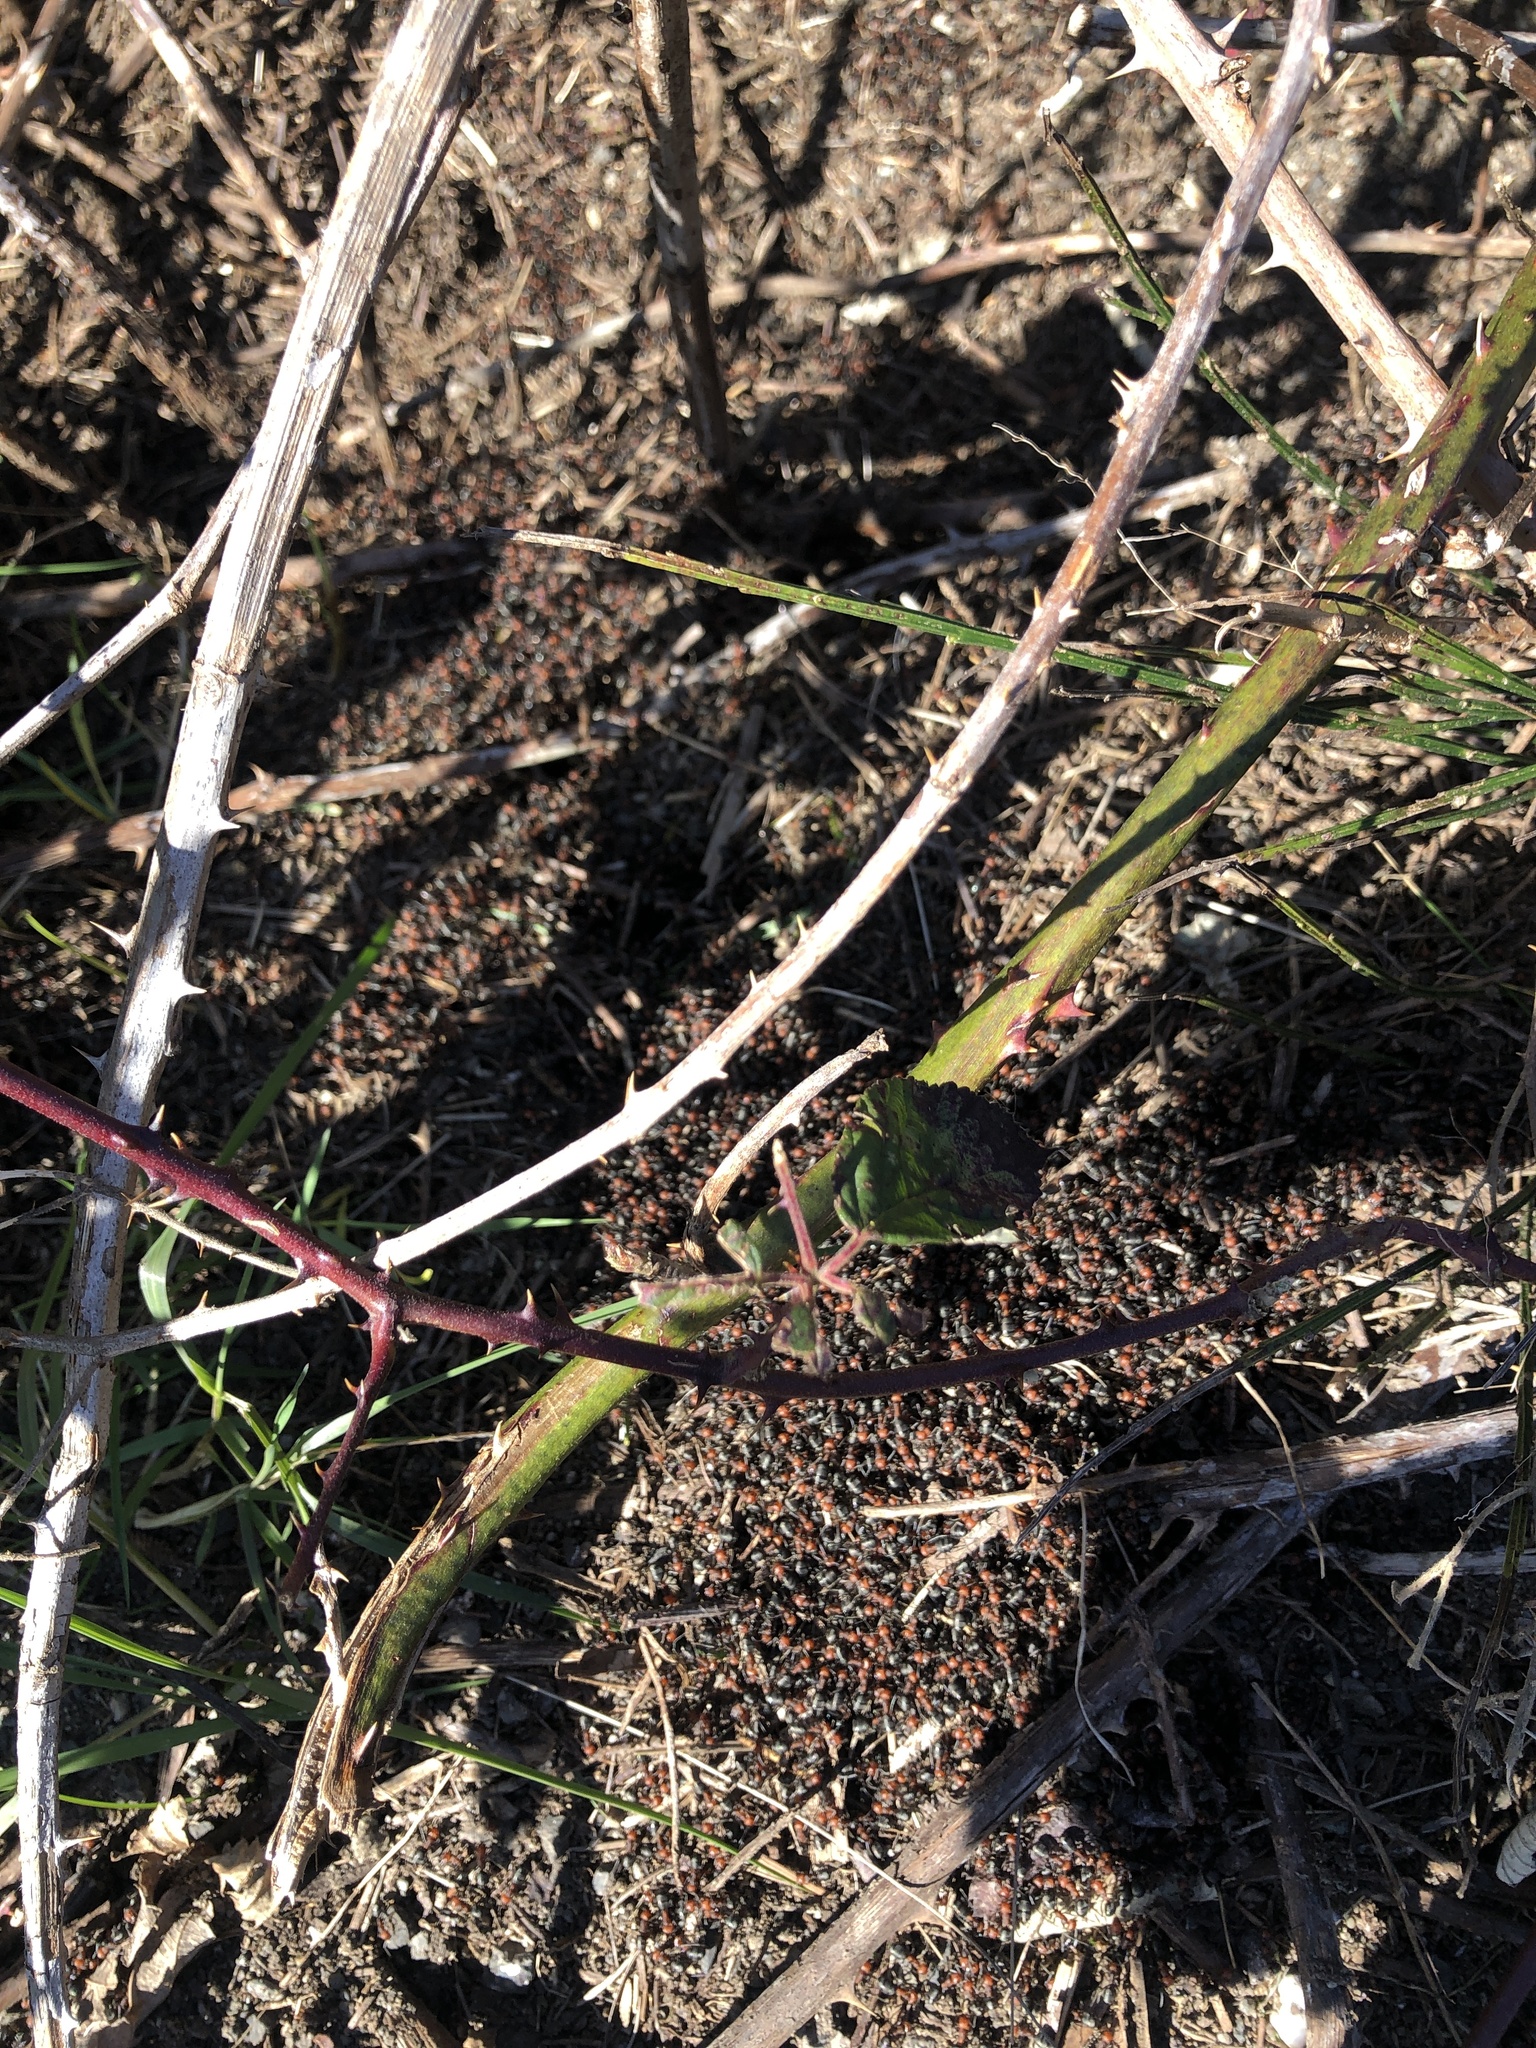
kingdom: Animalia
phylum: Arthropoda
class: Insecta
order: Hymenoptera
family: Formicidae
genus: Formica
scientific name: Formica obscuripes
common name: Western thatching ant
